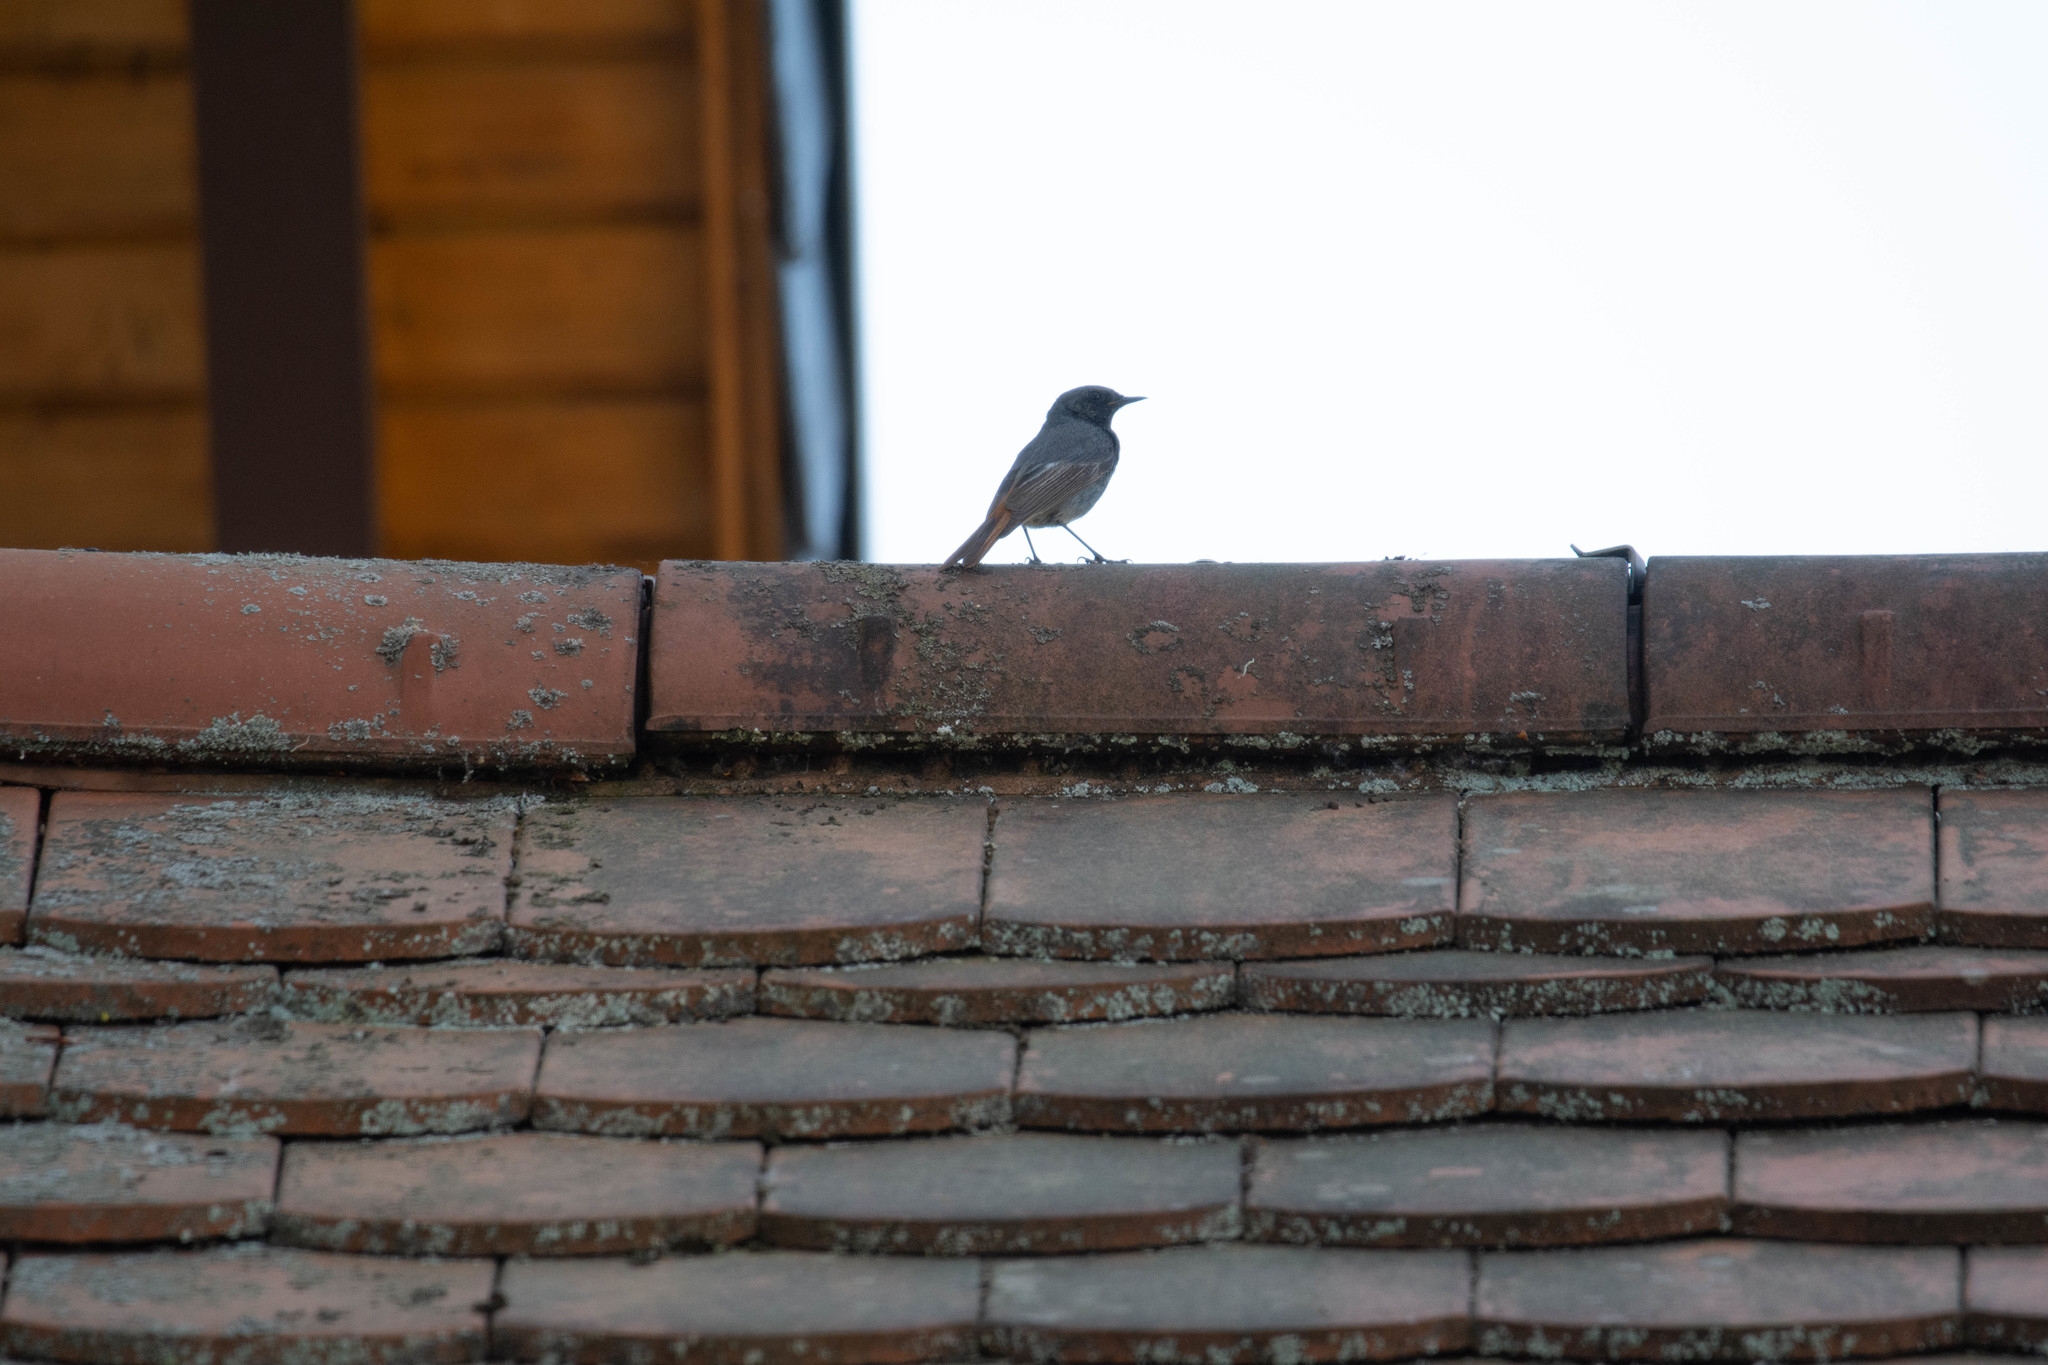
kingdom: Animalia
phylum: Chordata
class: Aves
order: Passeriformes
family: Muscicapidae
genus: Phoenicurus
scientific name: Phoenicurus ochruros
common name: Black redstart
